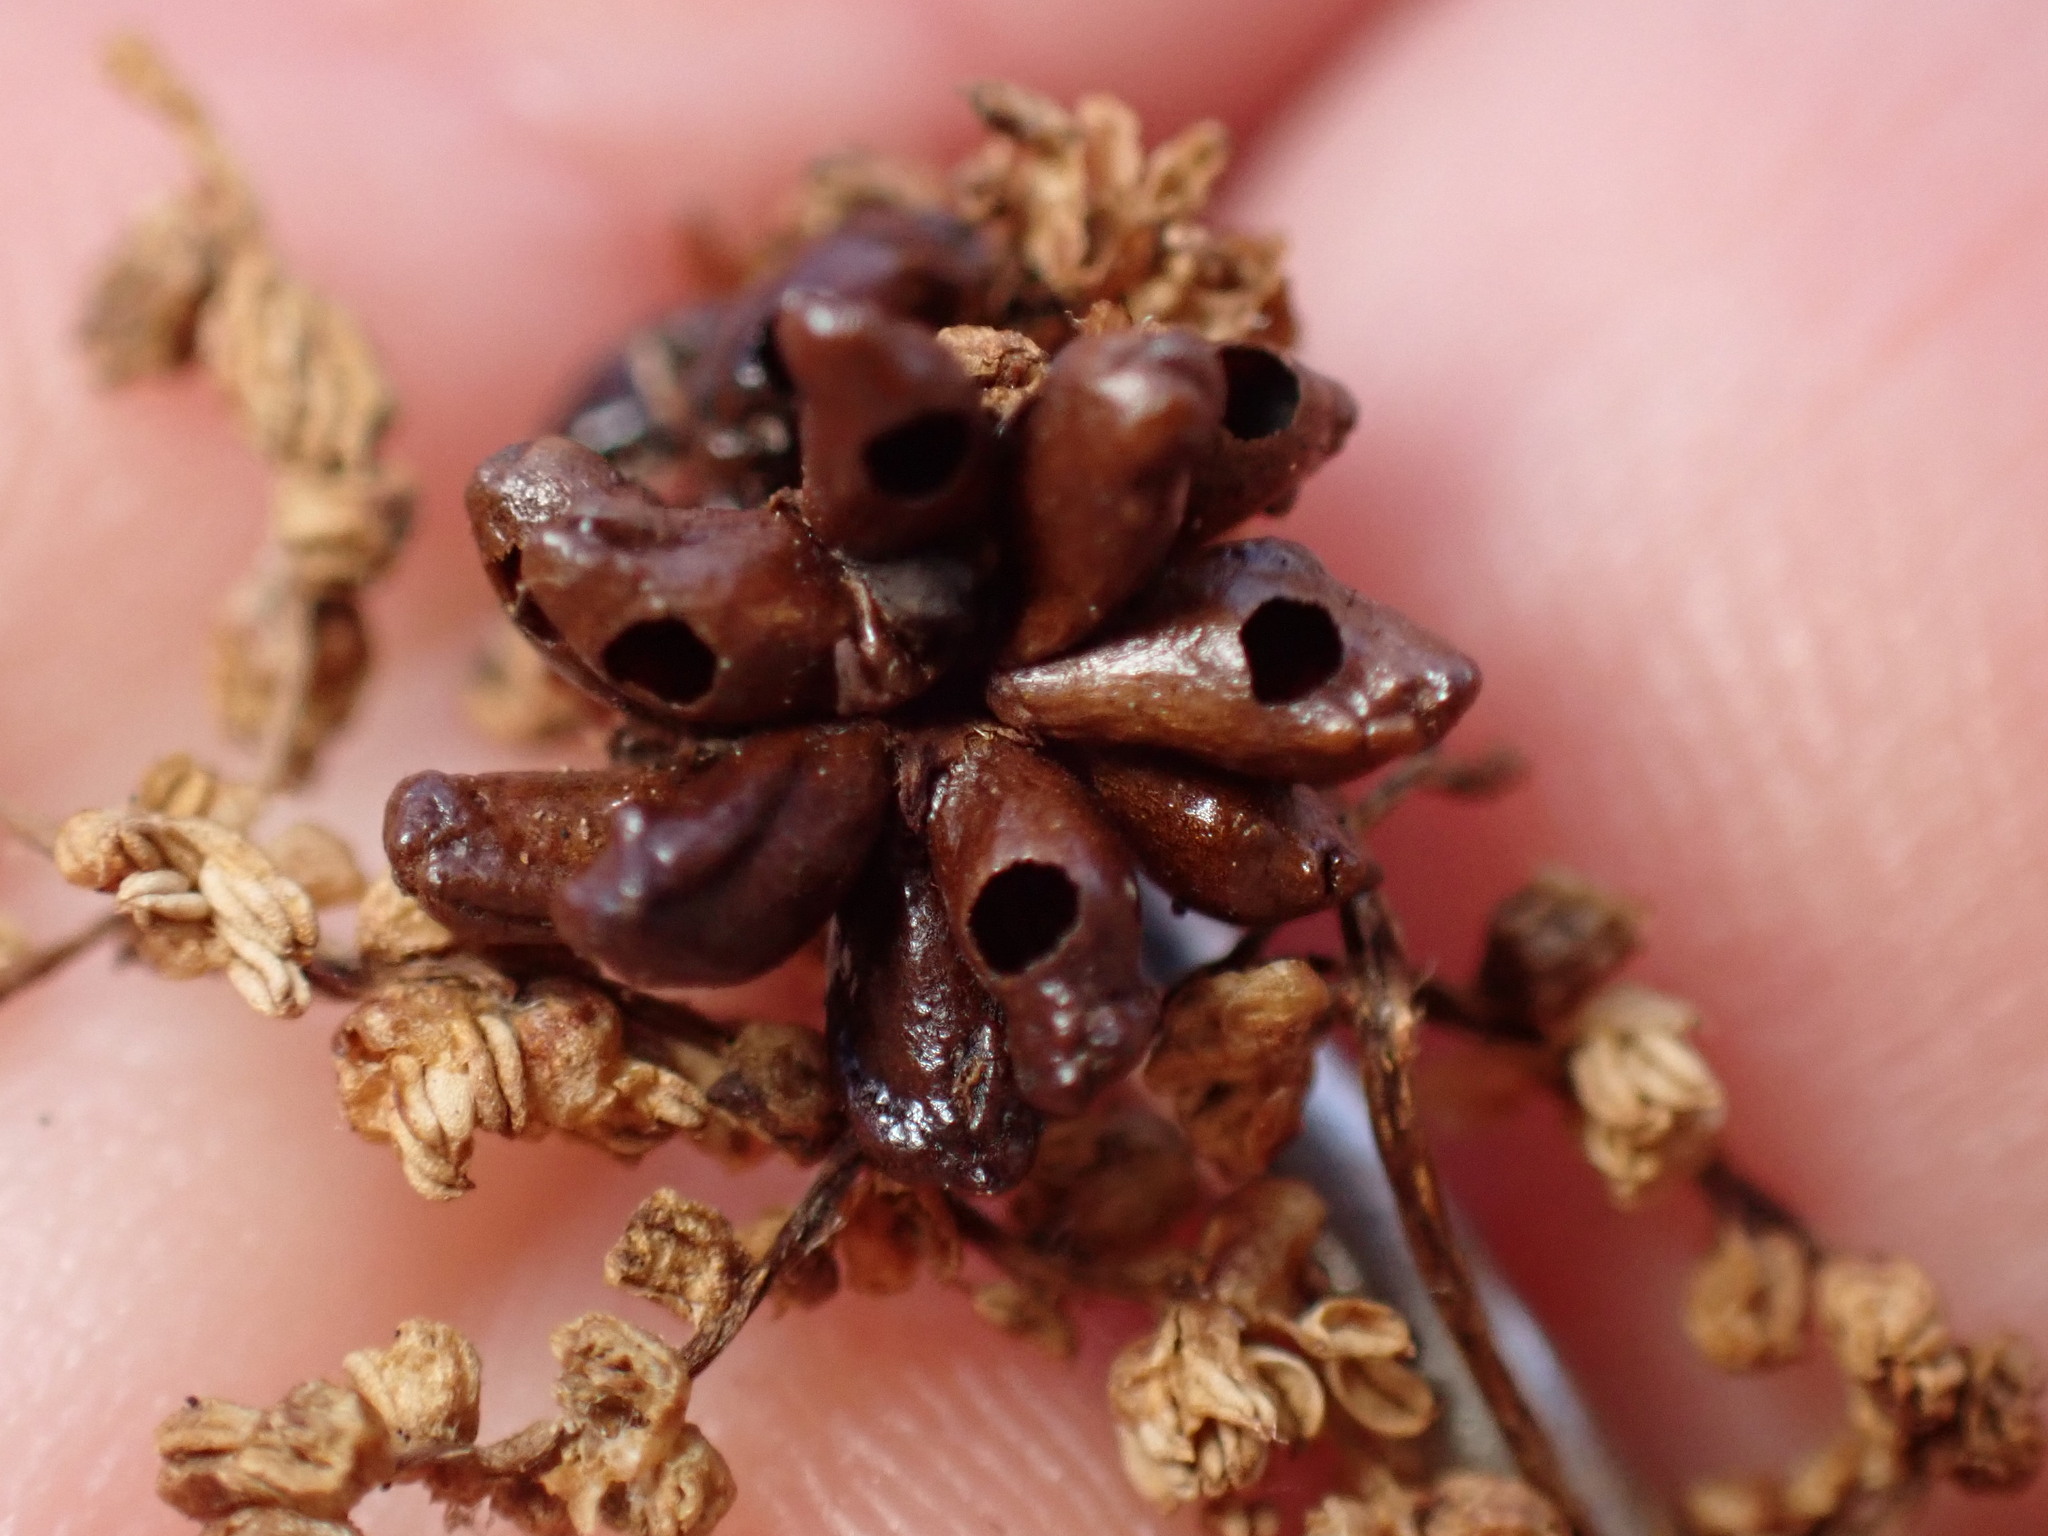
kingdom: Animalia
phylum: Arthropoda
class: Insecta
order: Hymenoptera
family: Cynipidae
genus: Dryocosmus
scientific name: Dryocosmus
